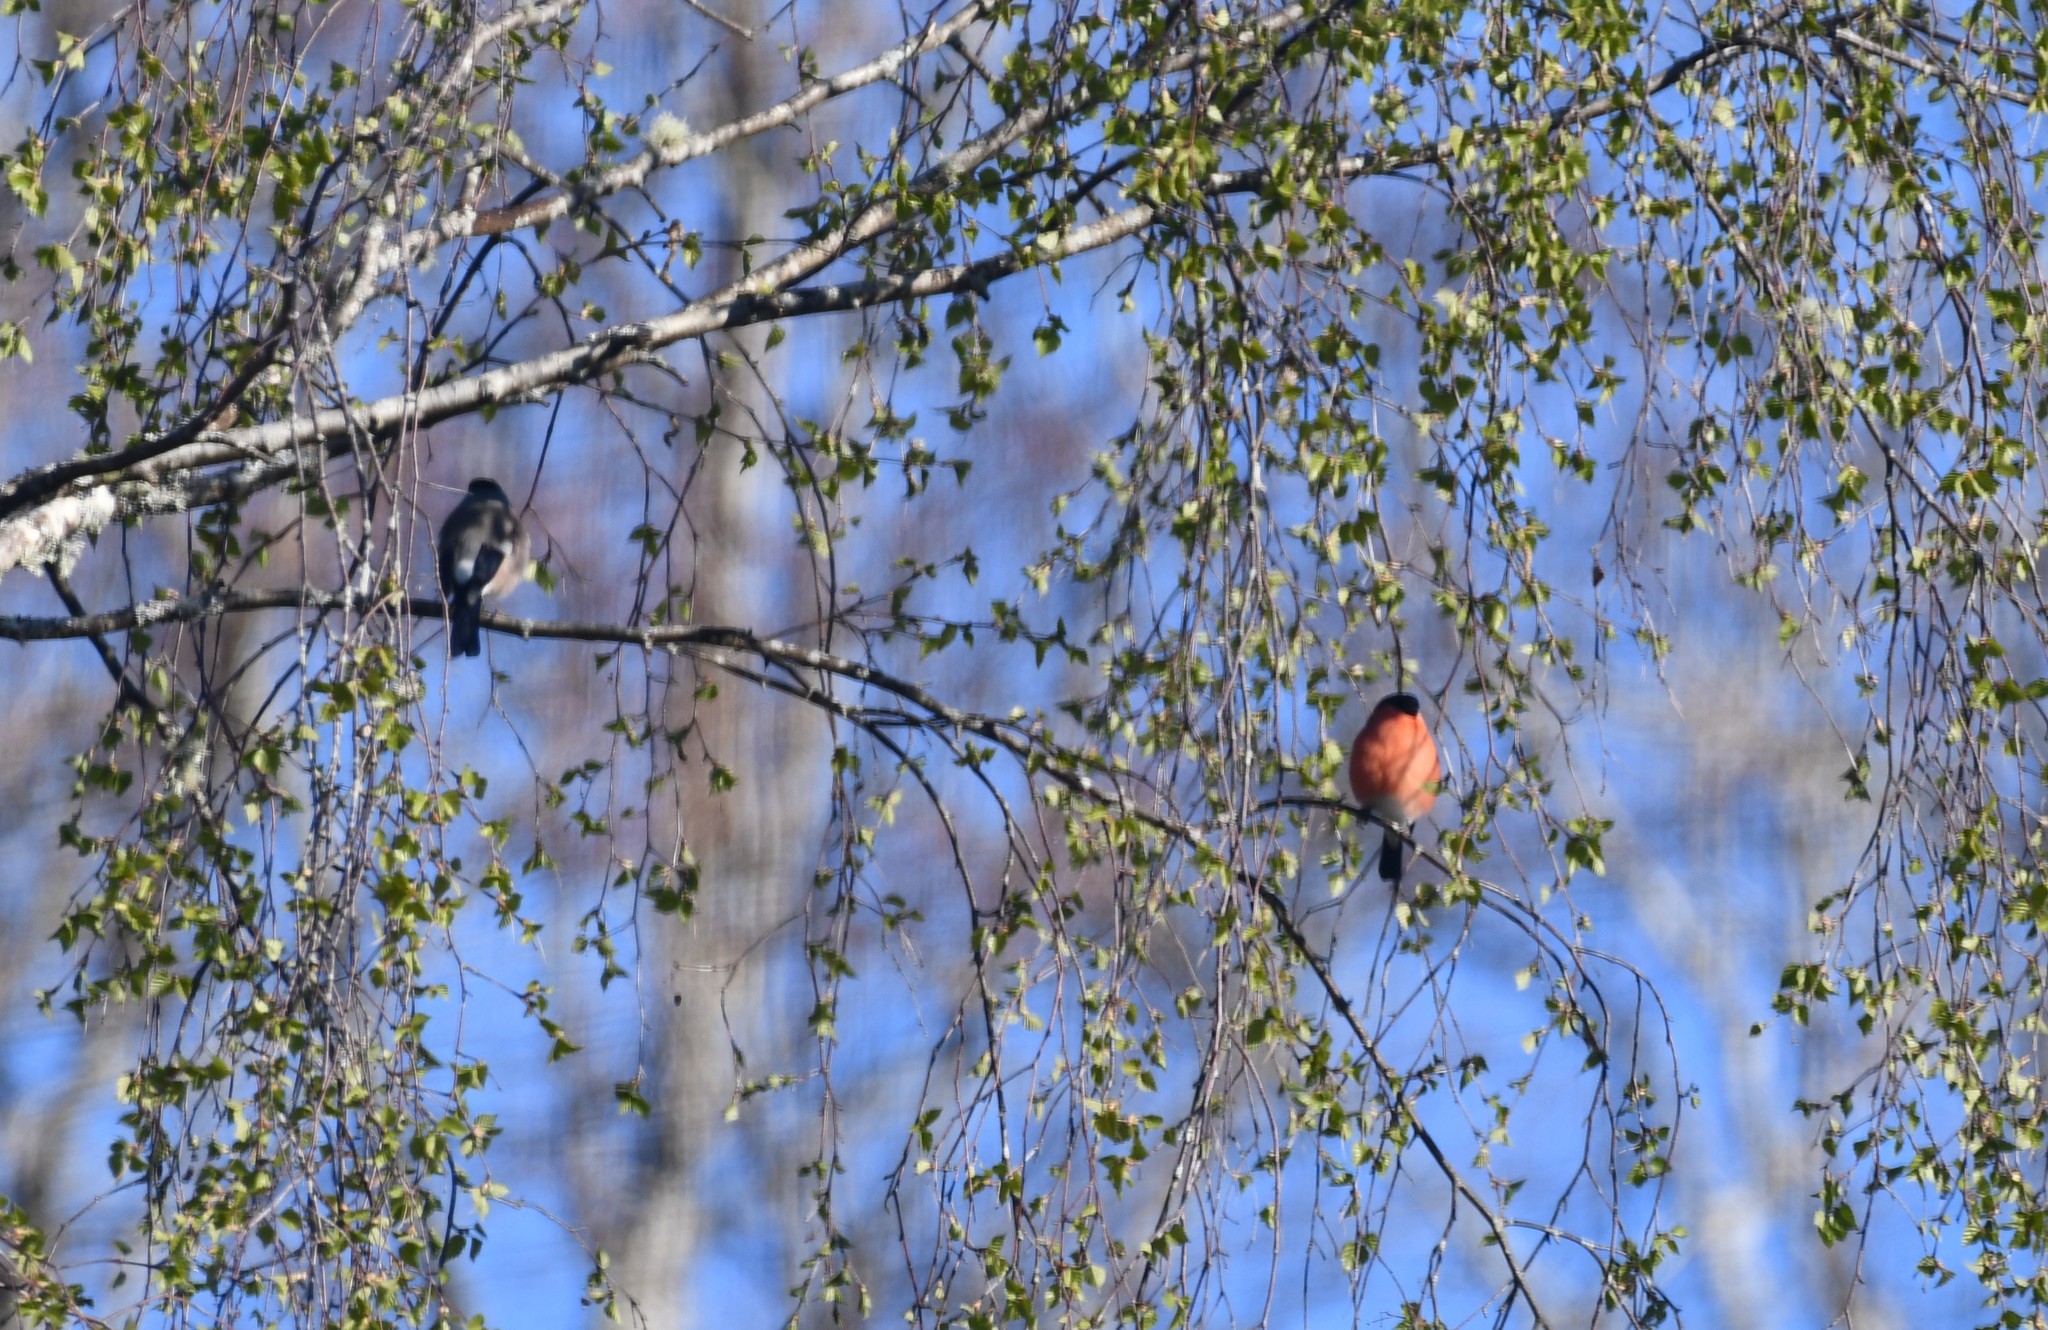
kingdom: Animalia
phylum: Chordata
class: Aves
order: Passeriformes
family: Fringillidae
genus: Pyrrhula
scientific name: Pyrrhula pyrrhula
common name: Eurasian bullfinch
